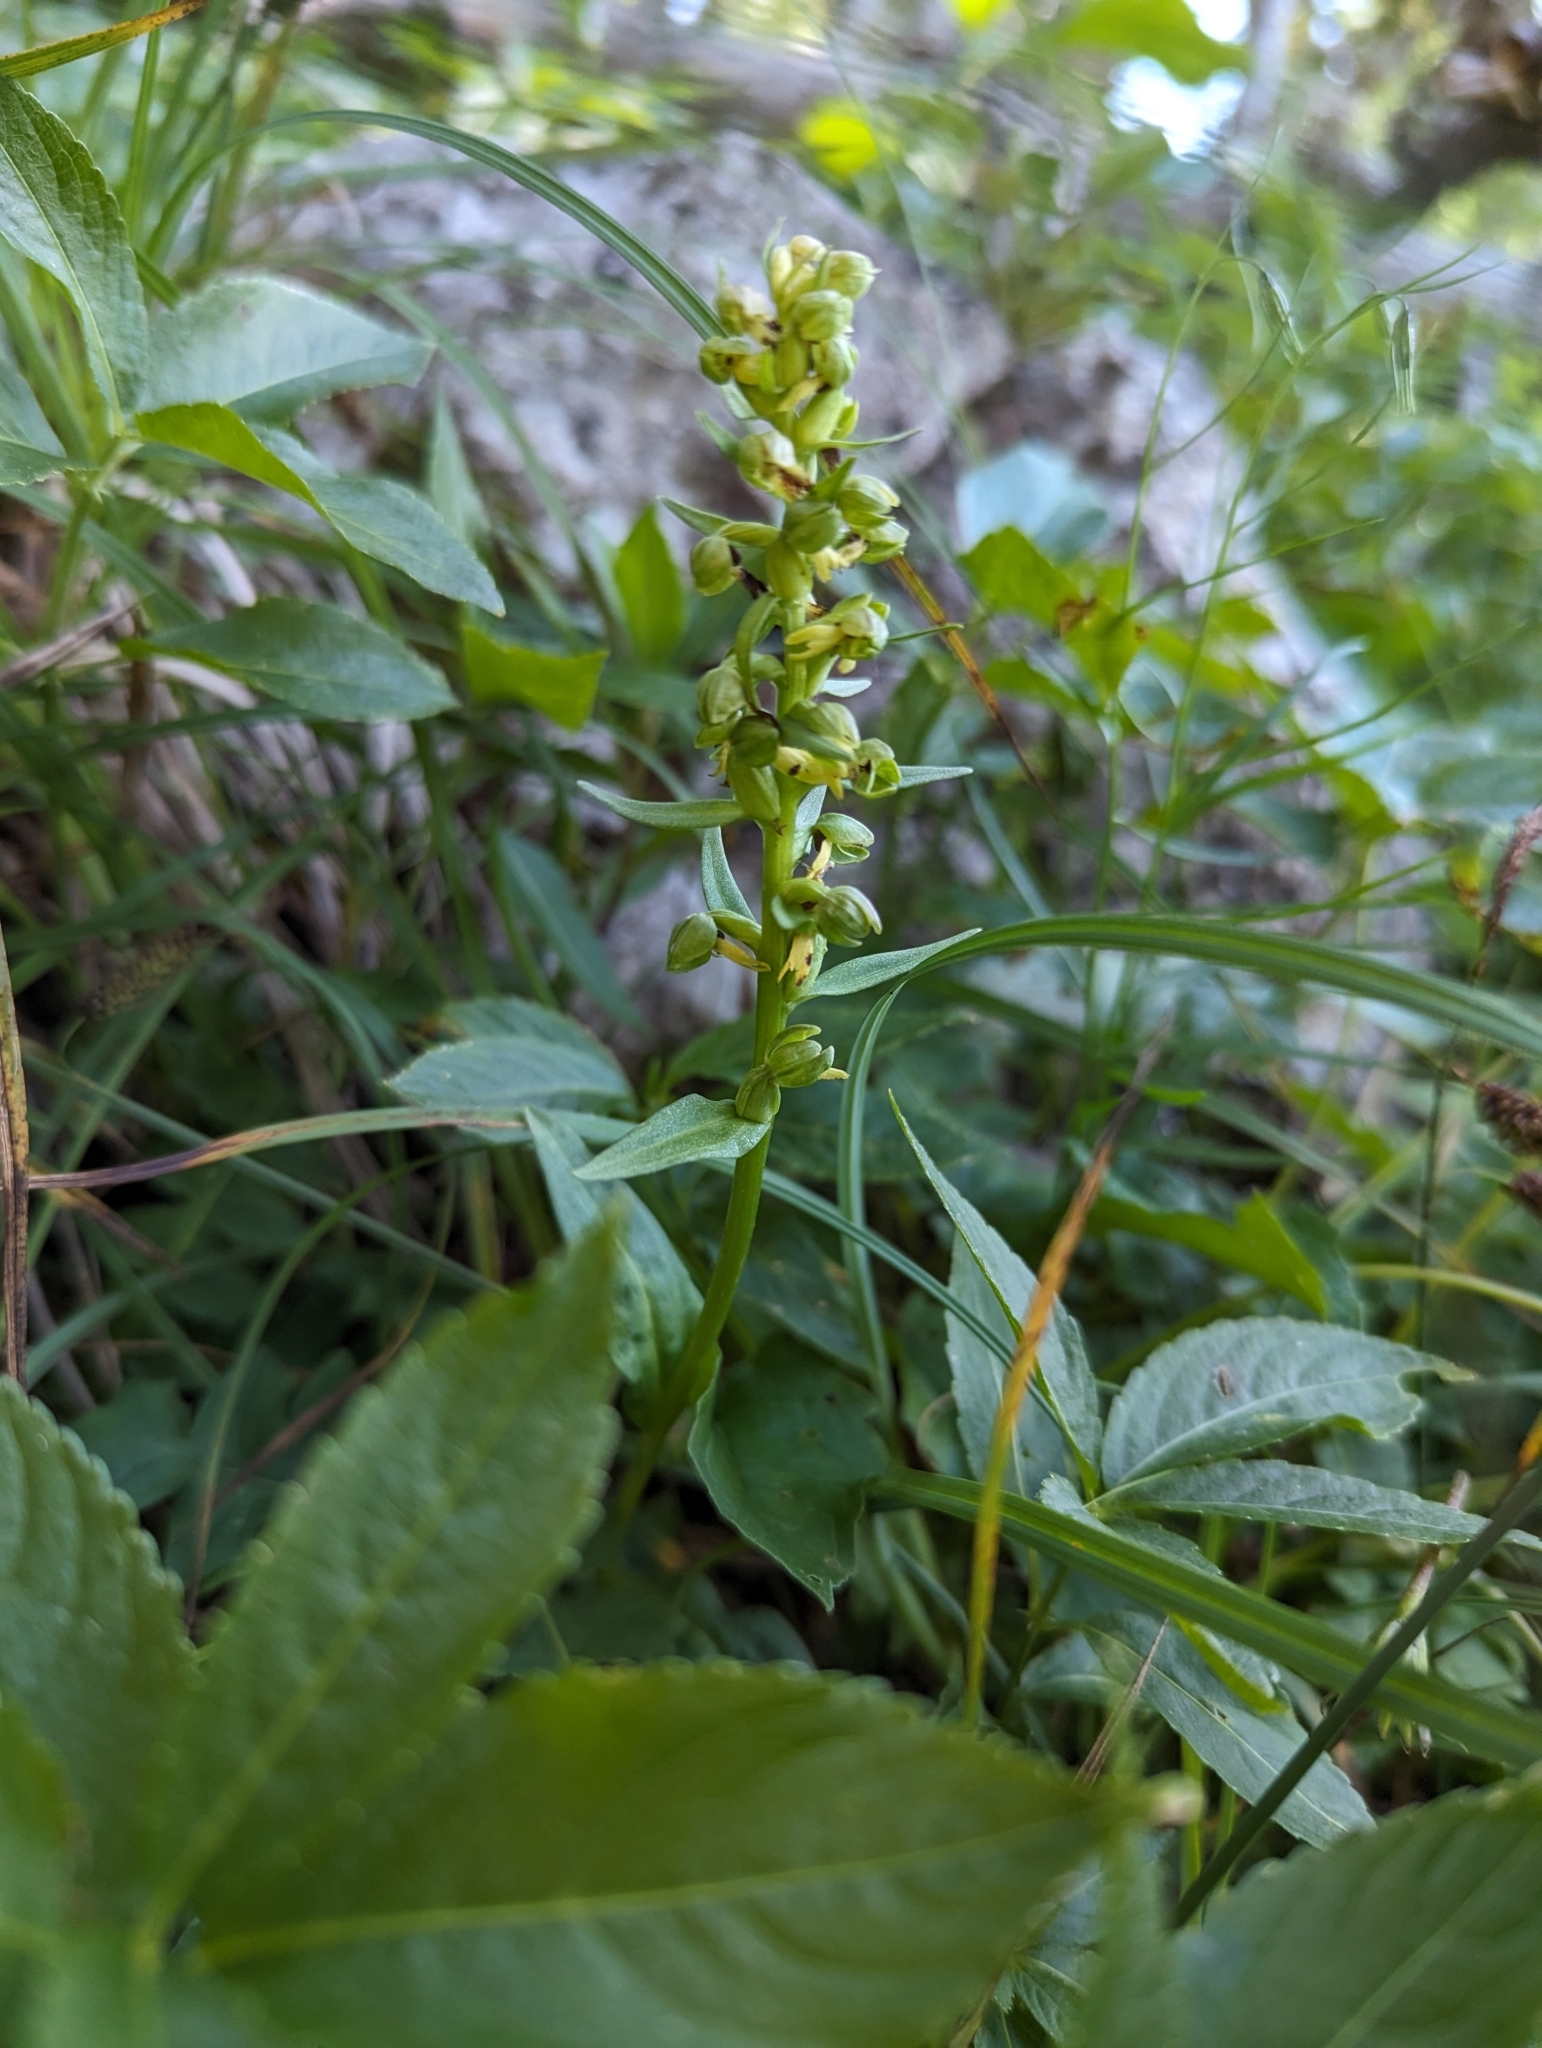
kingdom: Plantae
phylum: Tracheophyta
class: Liliopsida
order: Asparagales
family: Orchidaceae
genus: Dactylorhiza
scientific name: Dactylorhiza viridis
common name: Longbract frog orchid
